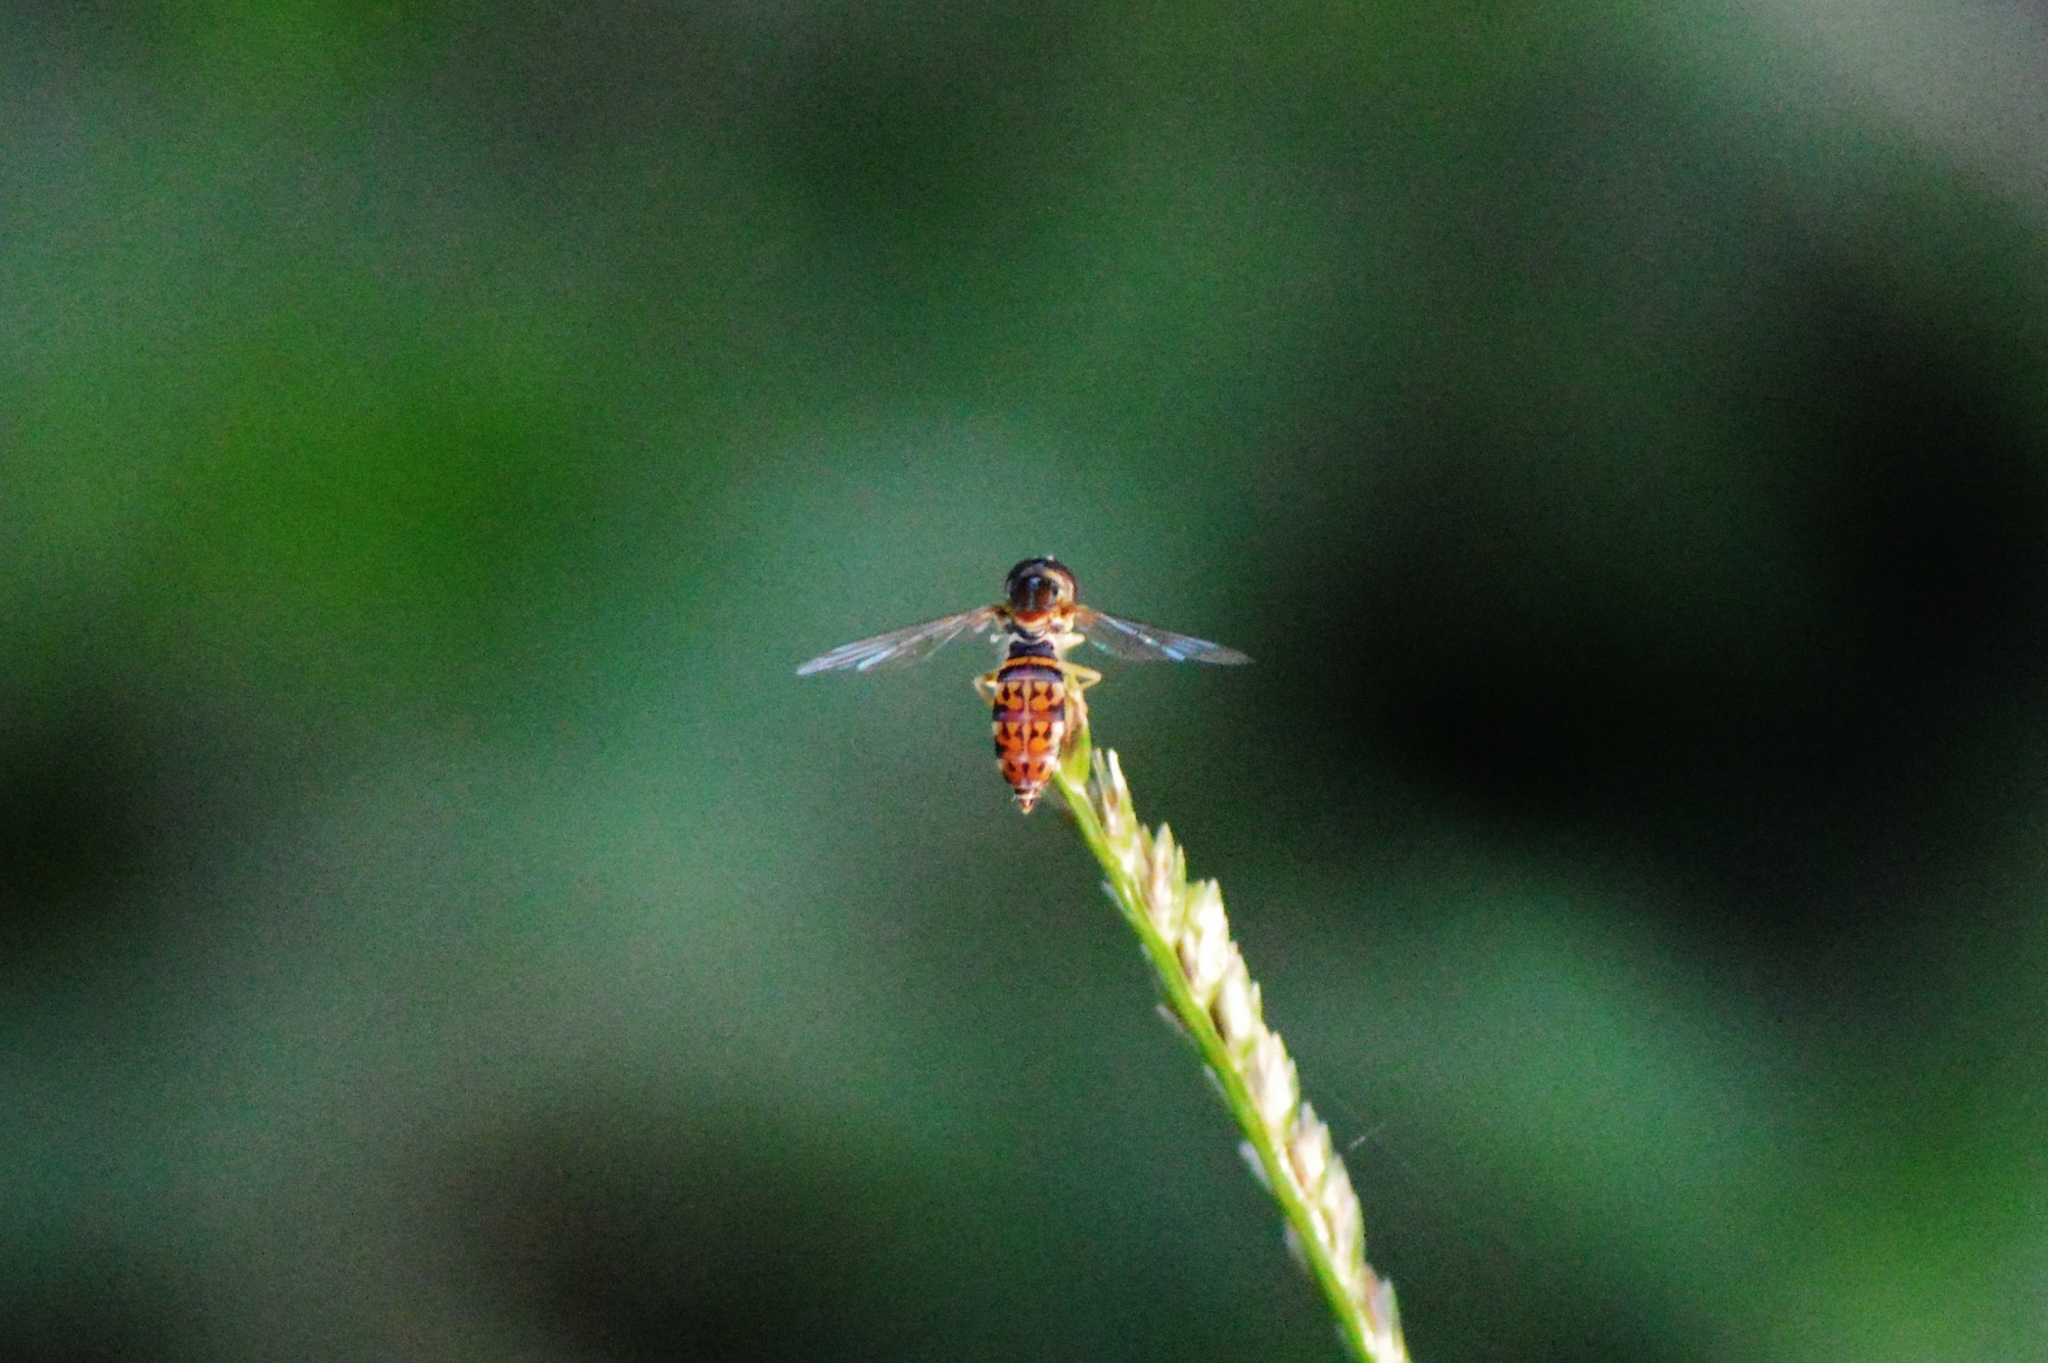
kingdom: Animalia
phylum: Arthropoda
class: Insecta
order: Diptera
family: Syrphidae
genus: Toxomerus
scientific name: Toxomerus
